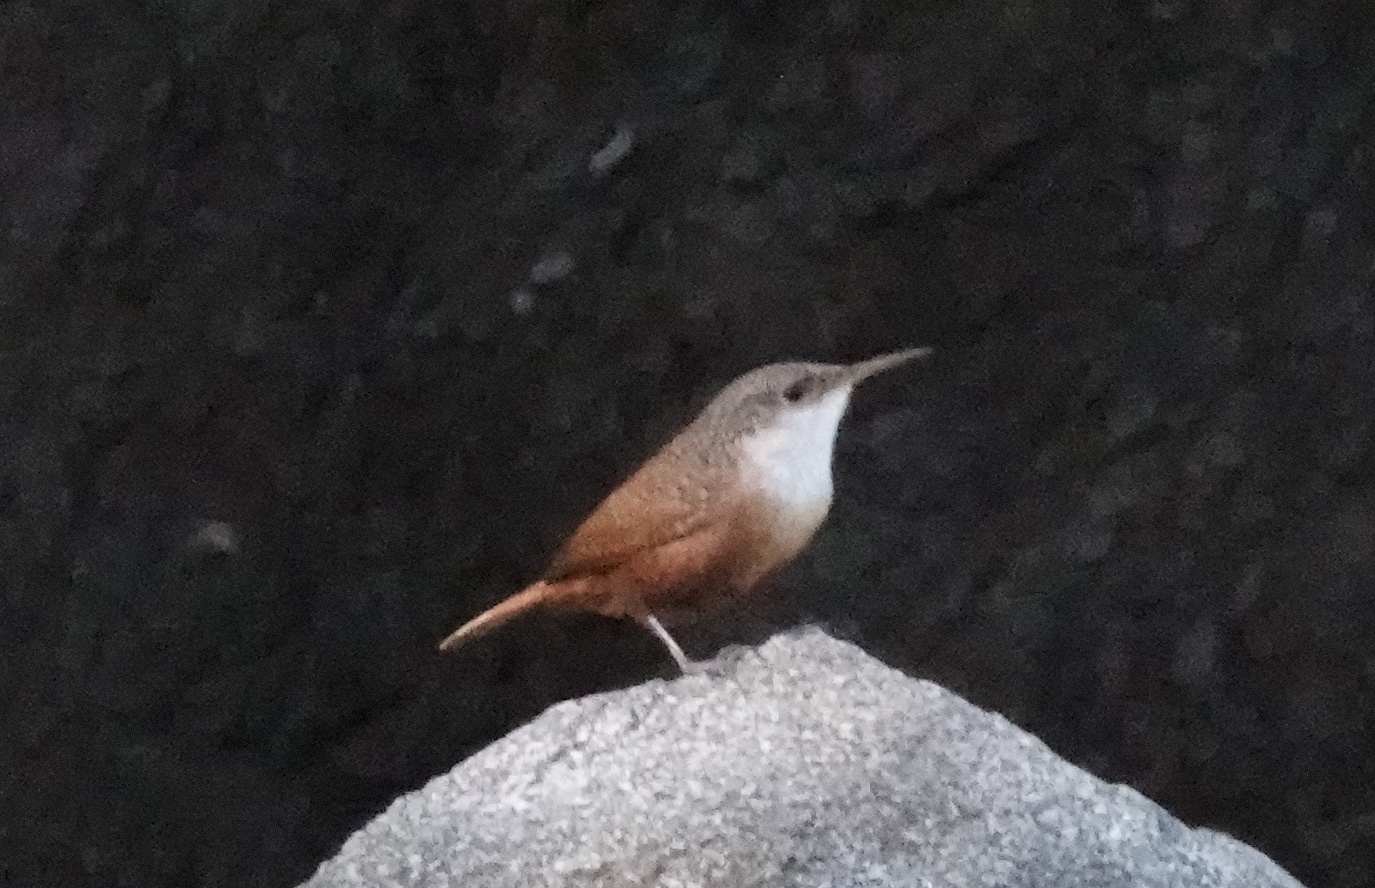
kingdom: Animalia
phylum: Chordata
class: Aves
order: Passeriformes
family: Troglodytidae
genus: Catherpes
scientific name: Catherpes mexicanus
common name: Canyon wren
